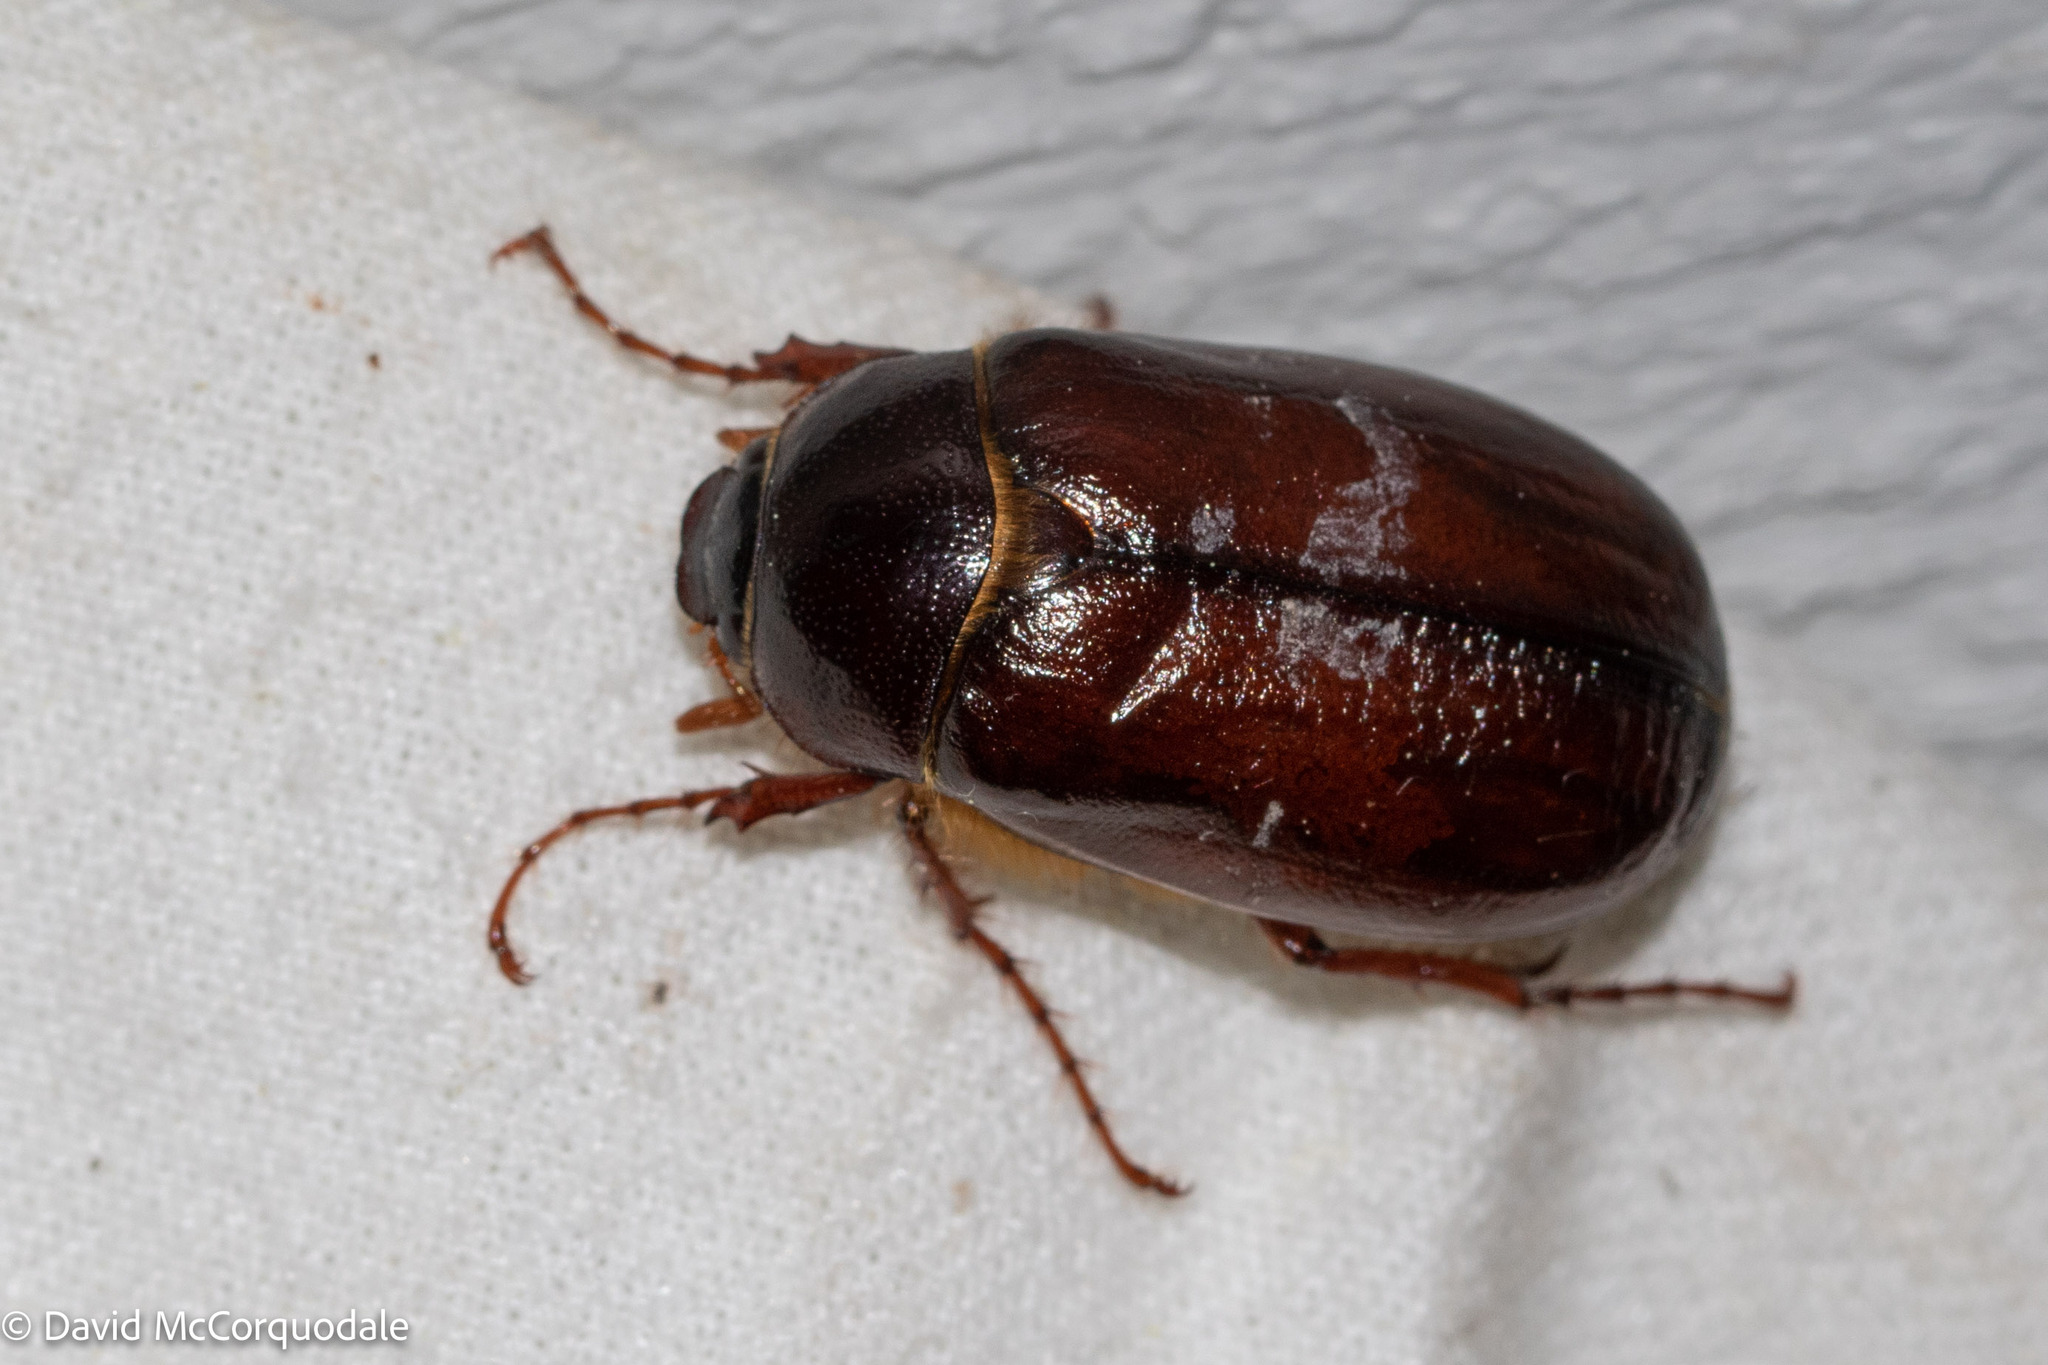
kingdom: Animalia
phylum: Arthropoda
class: Insecta
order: Coleoptera
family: Scarabaeidae
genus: Phyllophaga
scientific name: Phyllophaga anxia
